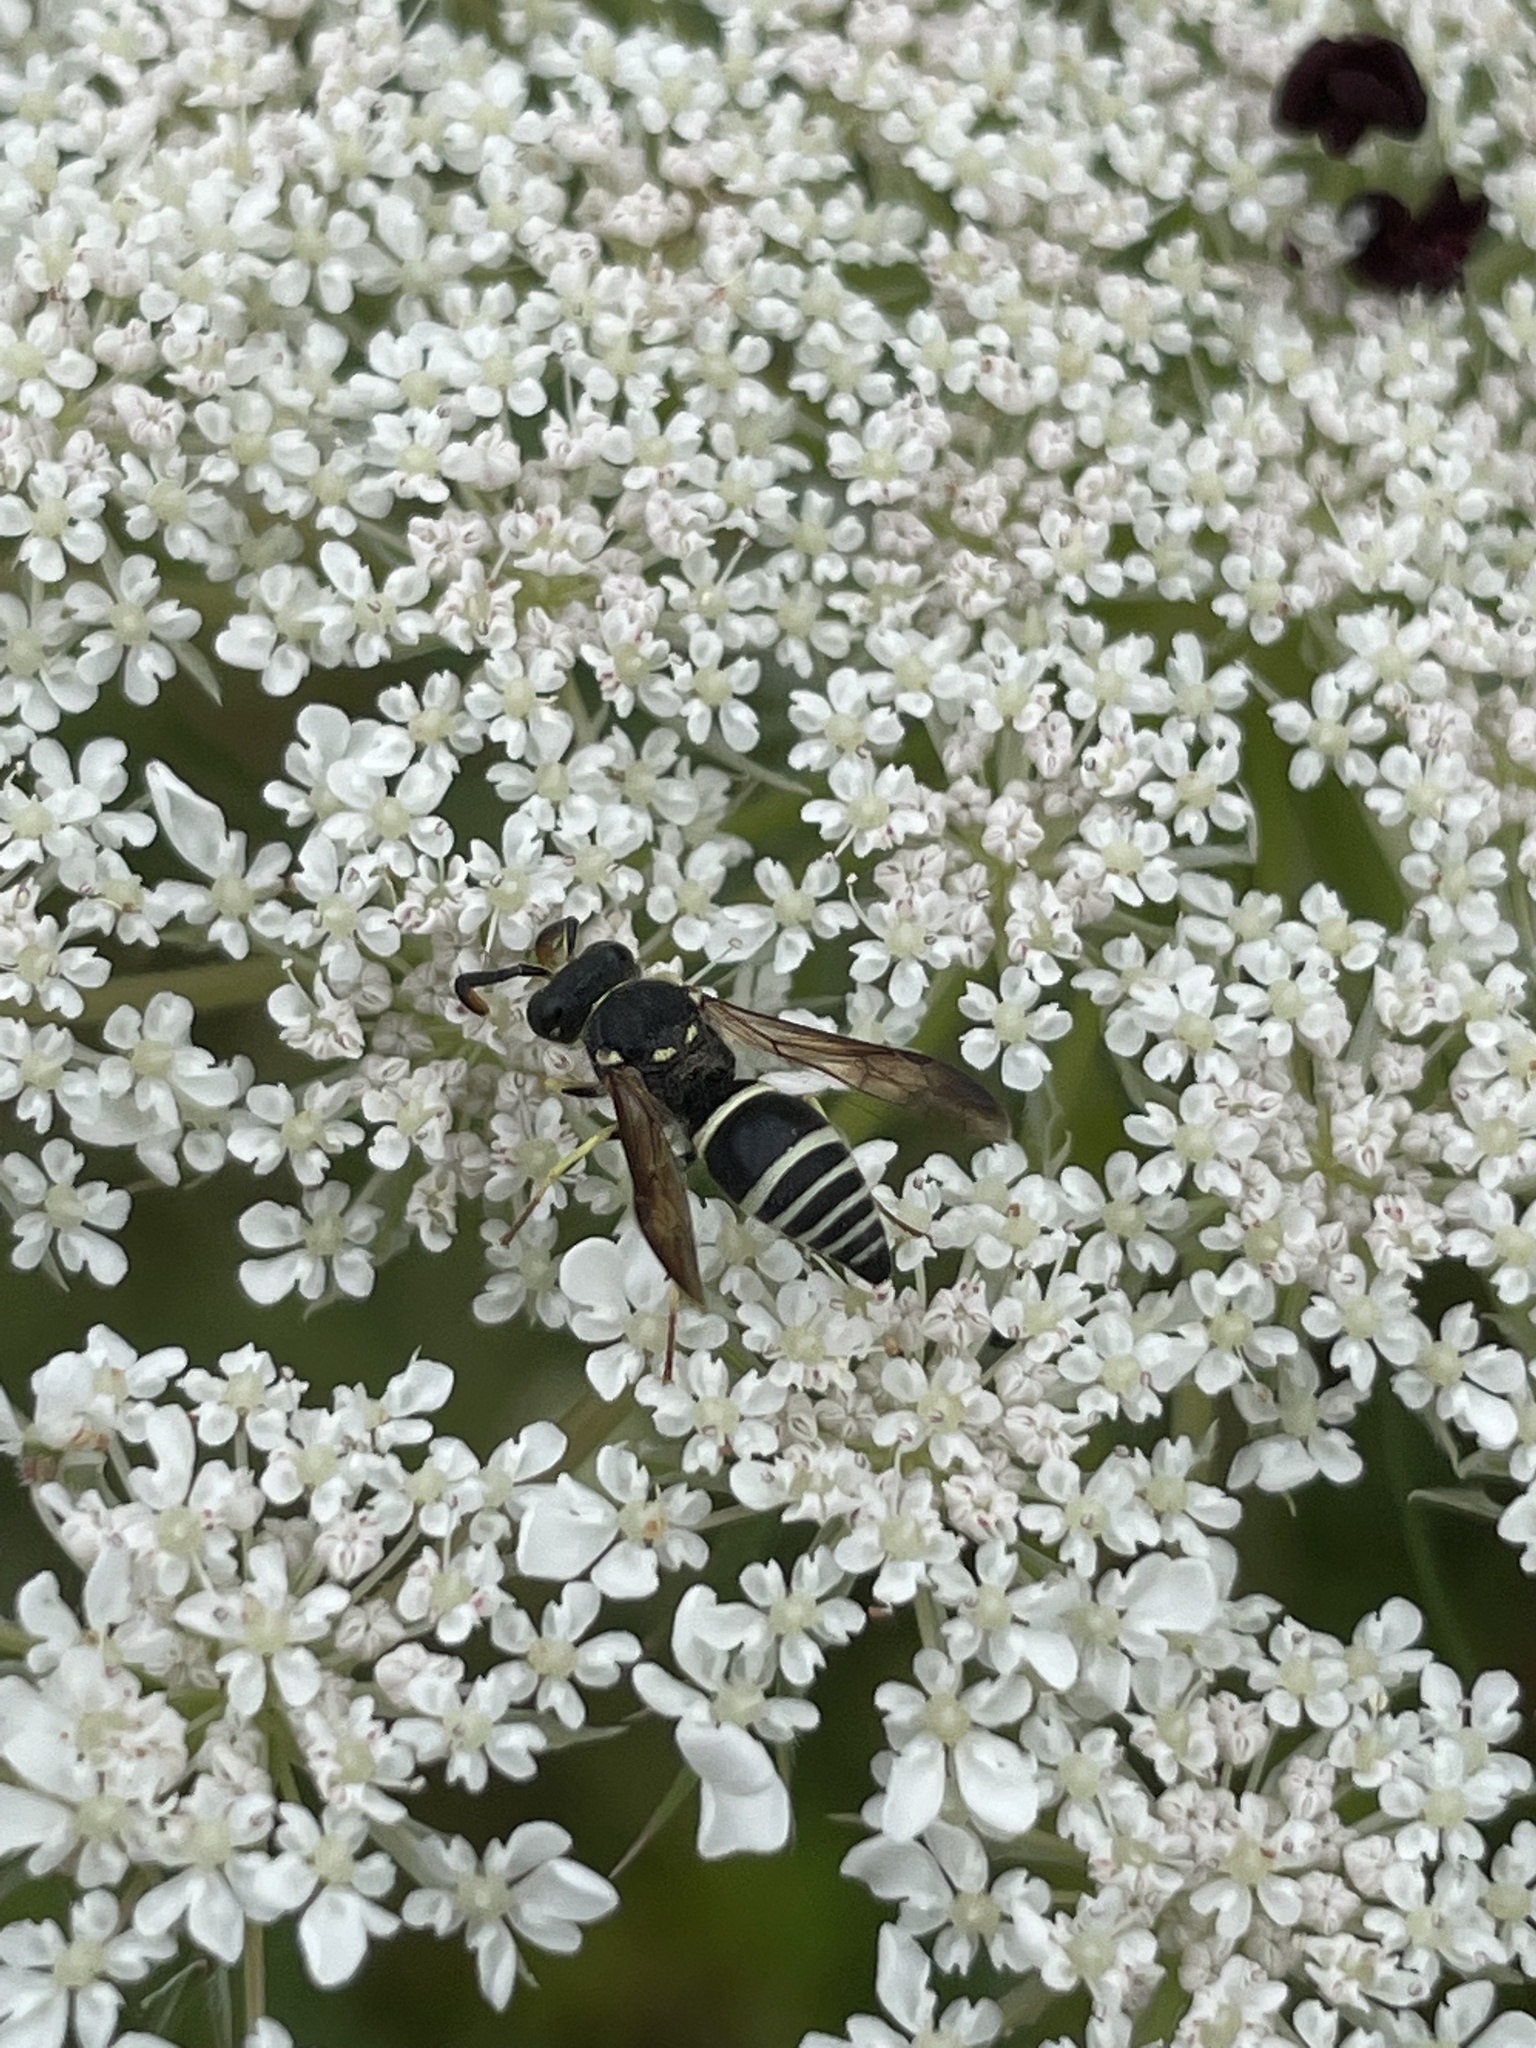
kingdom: Animalia
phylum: Arthropoda
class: Insecta
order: Hymenoptera
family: Vespidae
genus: Ancistrocerus
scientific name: Ancistrocerus
